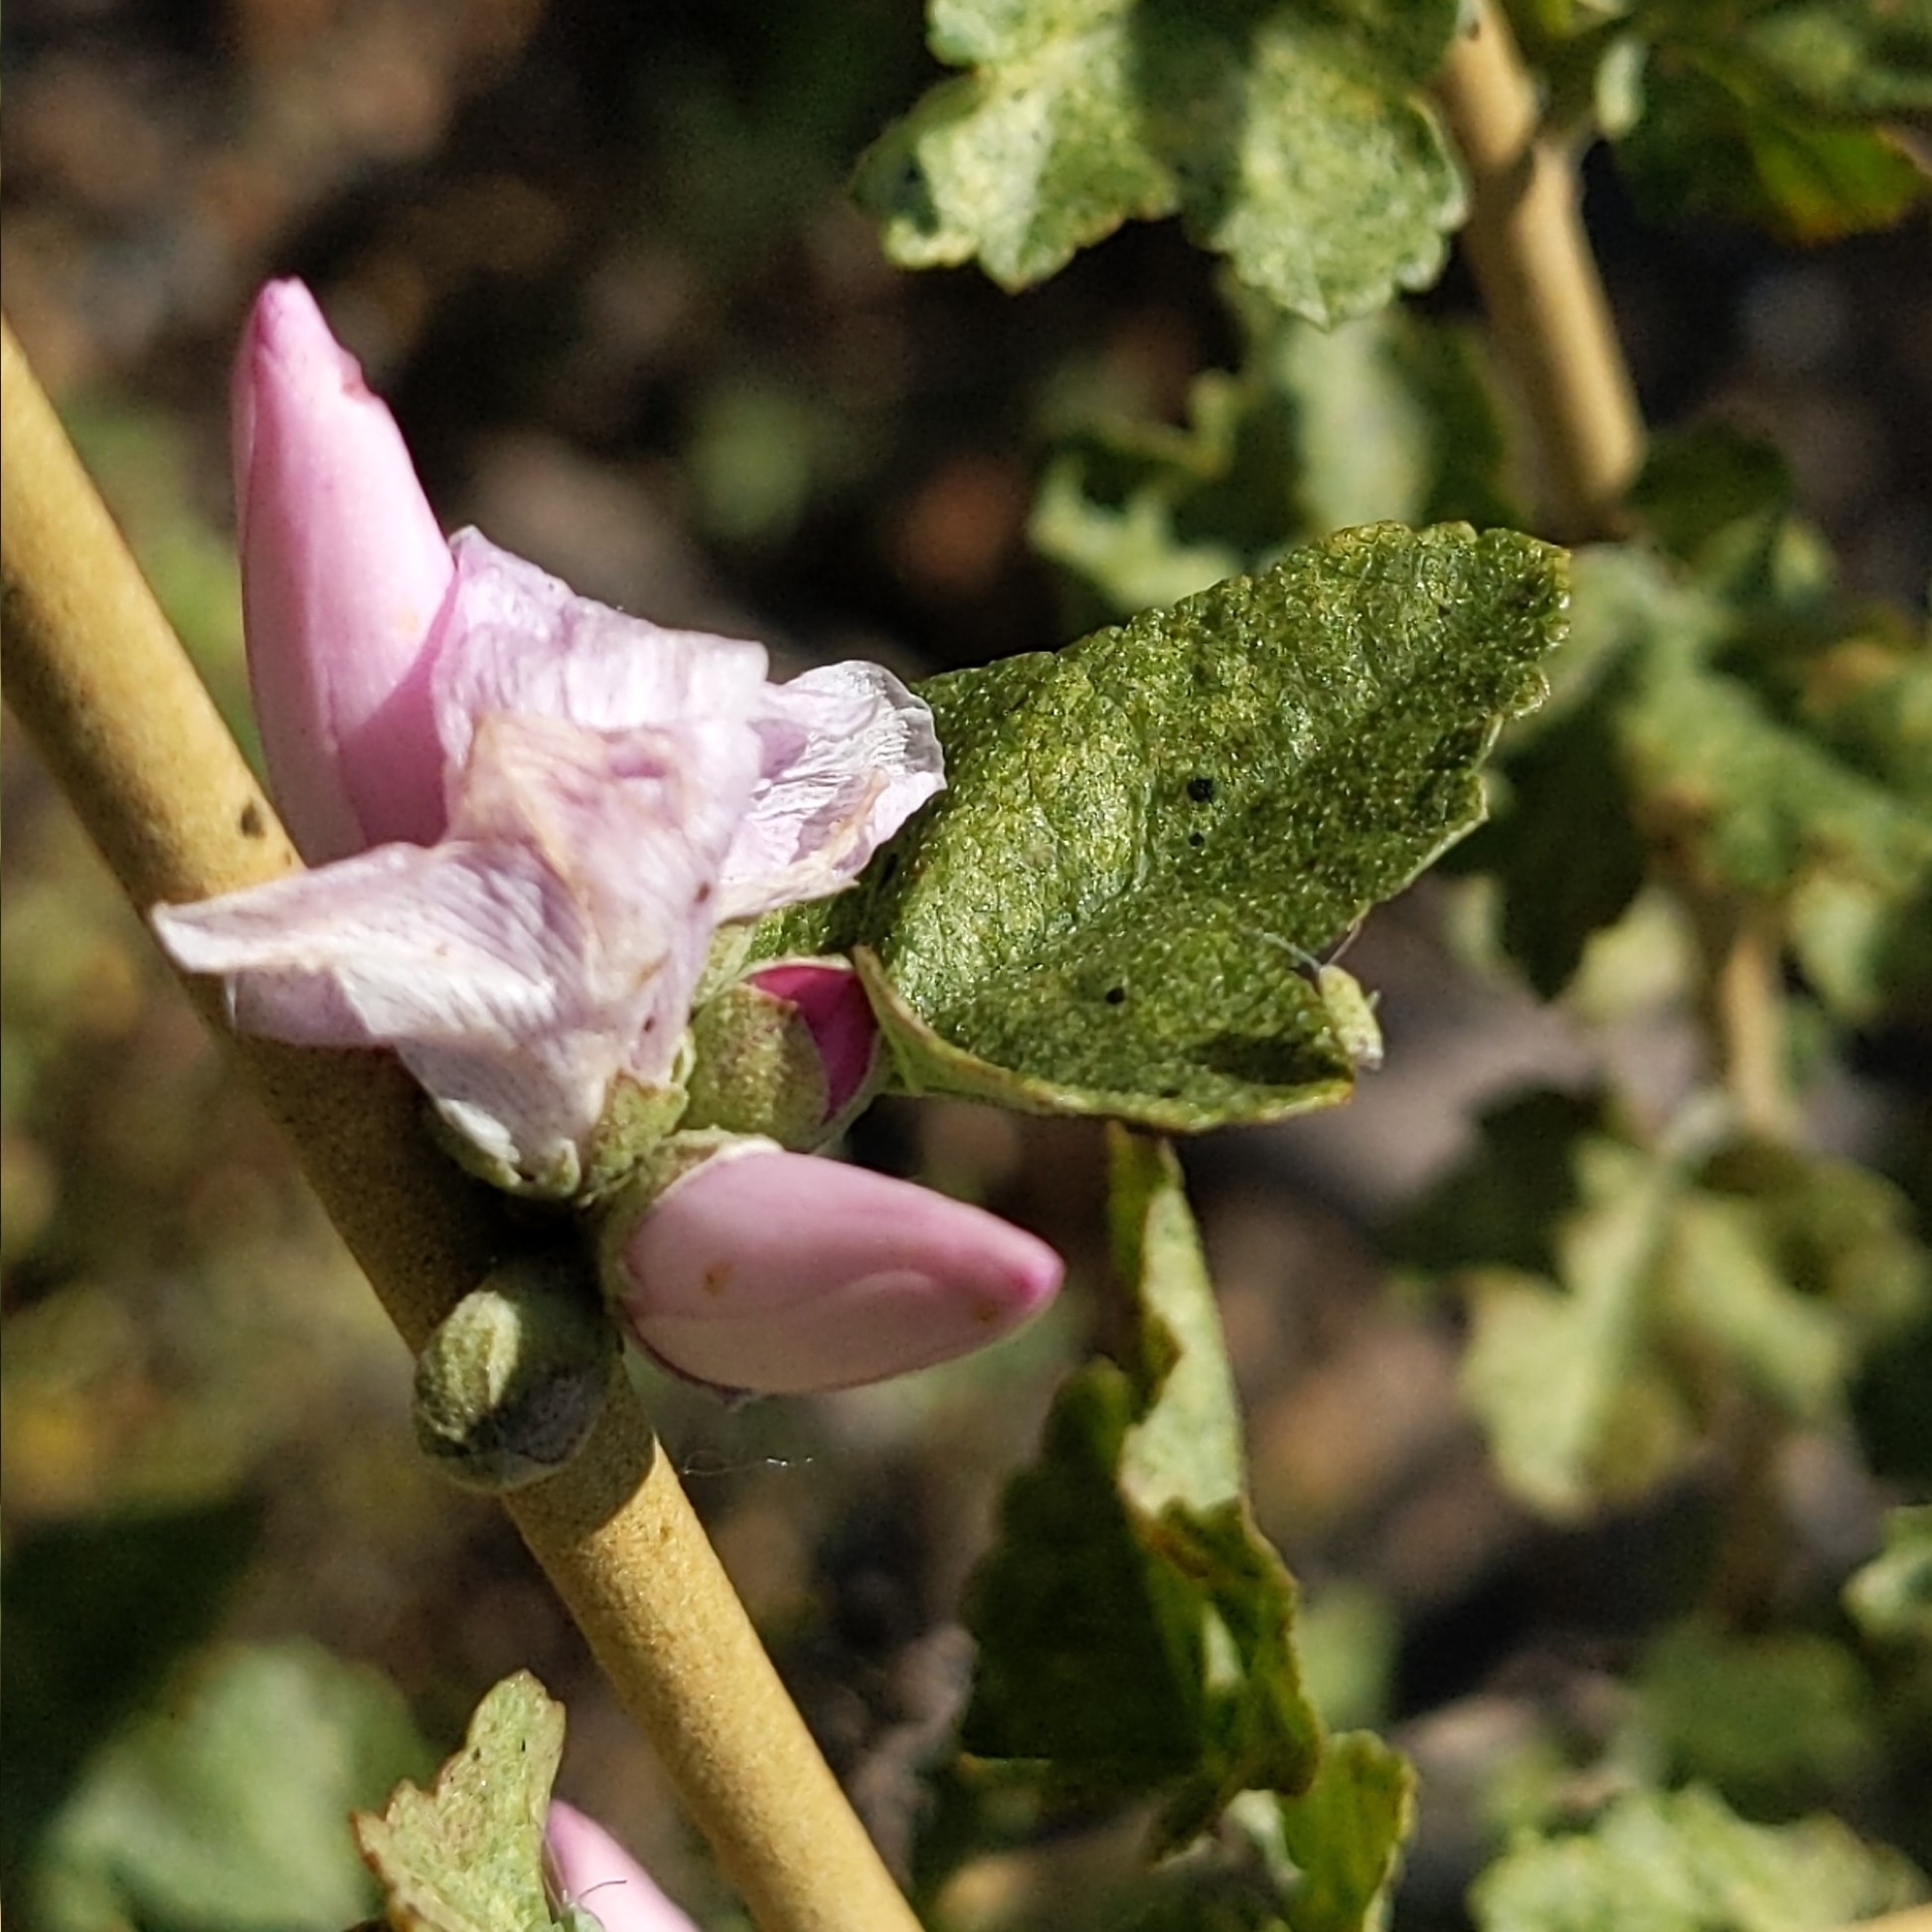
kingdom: Plantae
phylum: Tracheophyta
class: Magnoliopsida
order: Malvales
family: Malvaceae
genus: Malacothamnus
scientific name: Malacothamnus fasciculatus
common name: Sant cruz island bush-mallow
